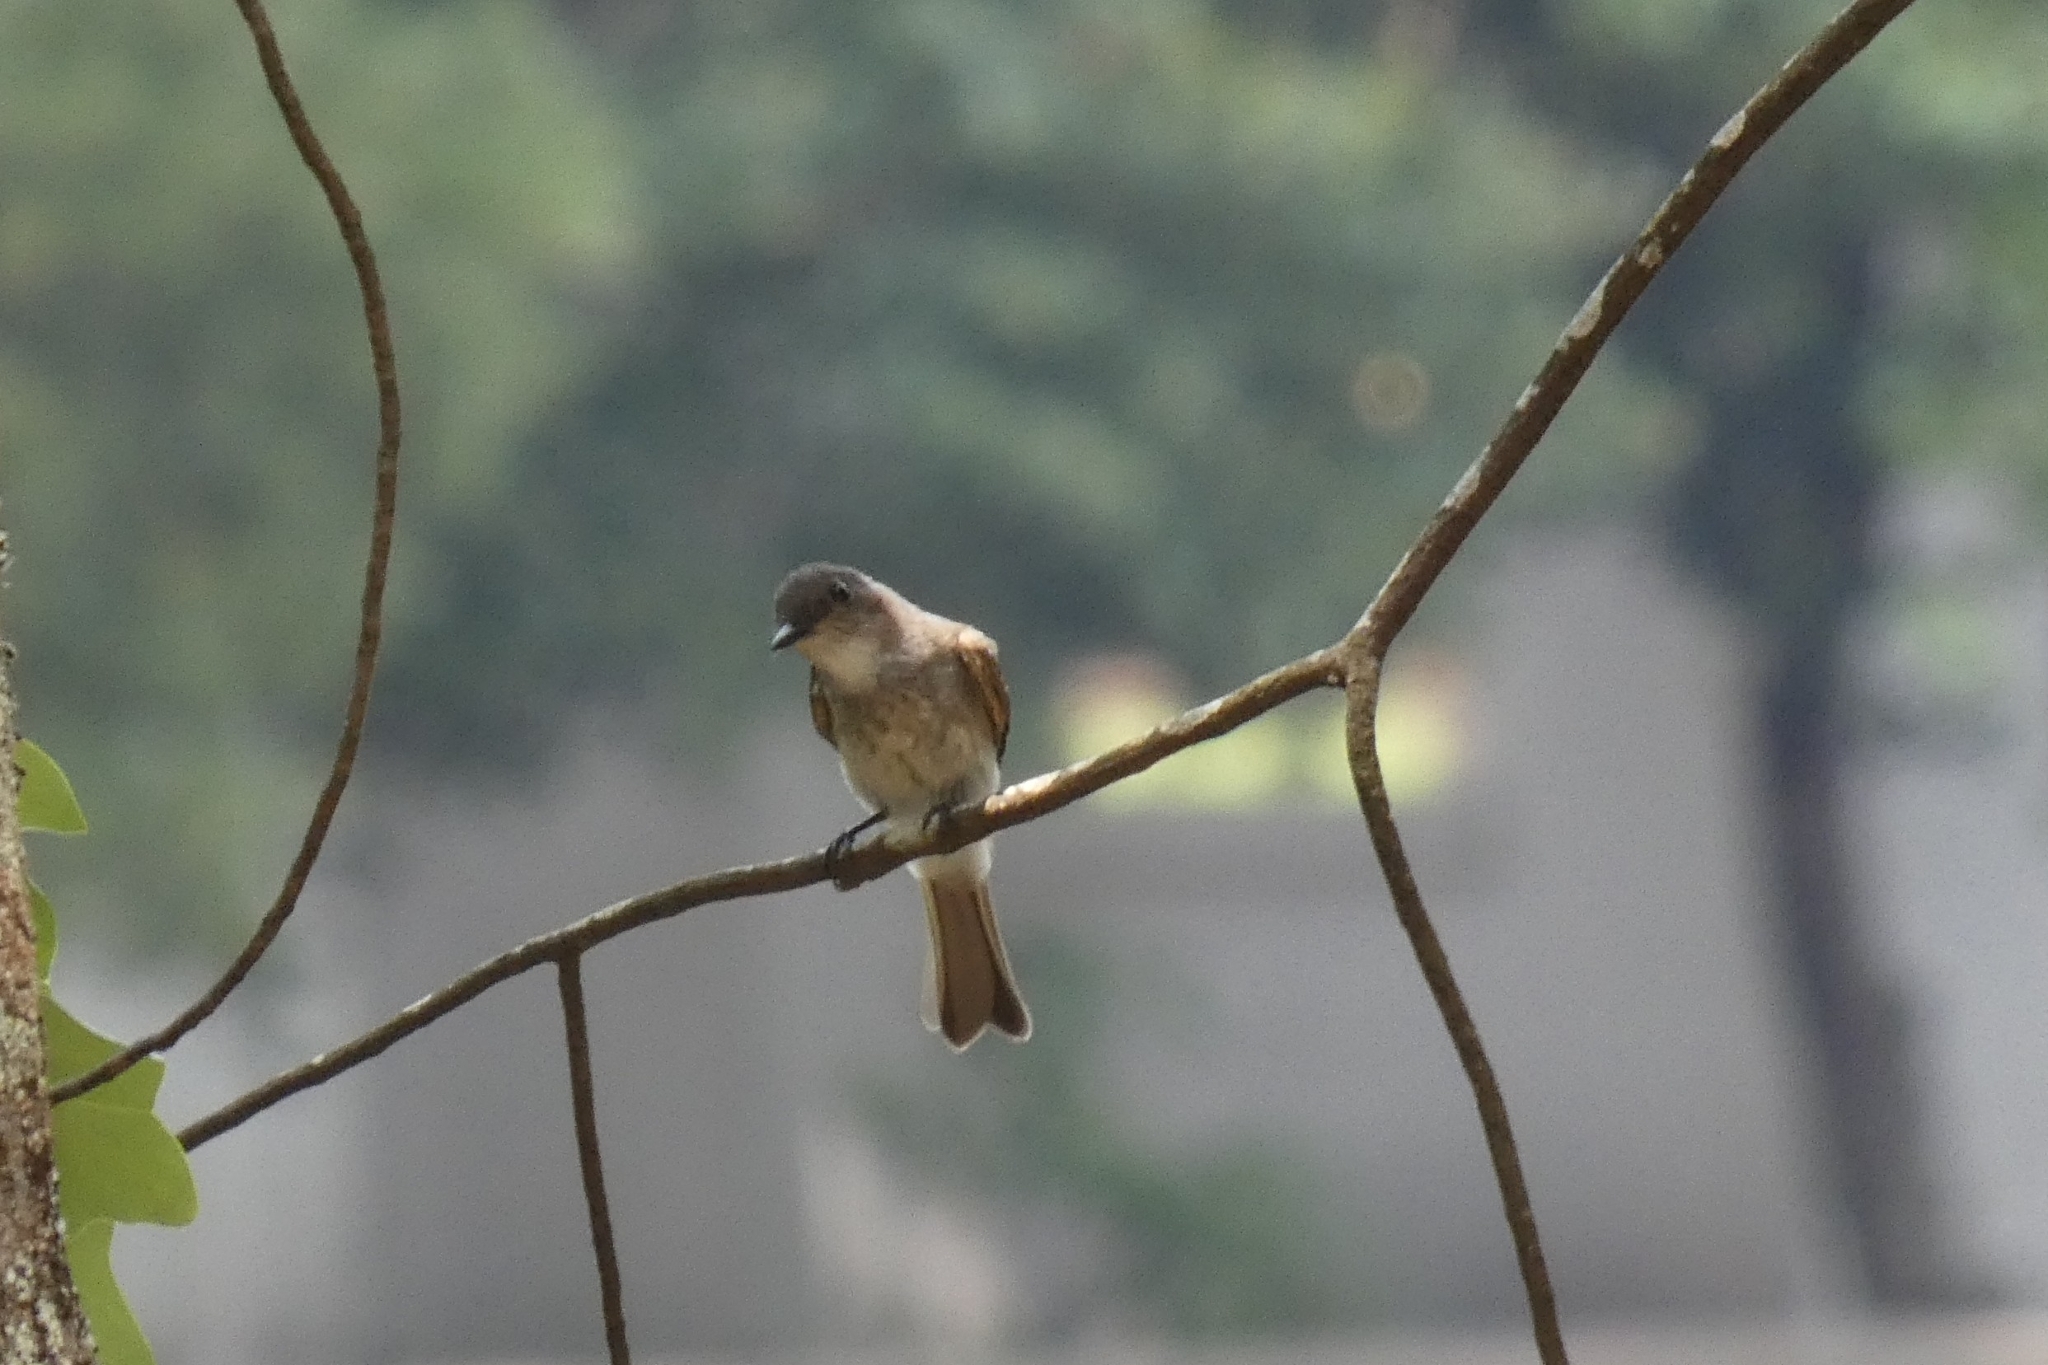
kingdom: Animalia
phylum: Chordata
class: Aves
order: Passeriformes
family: Tyrannidae
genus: Sayornis
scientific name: Sayornis phoebe
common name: Eastern phoebe
